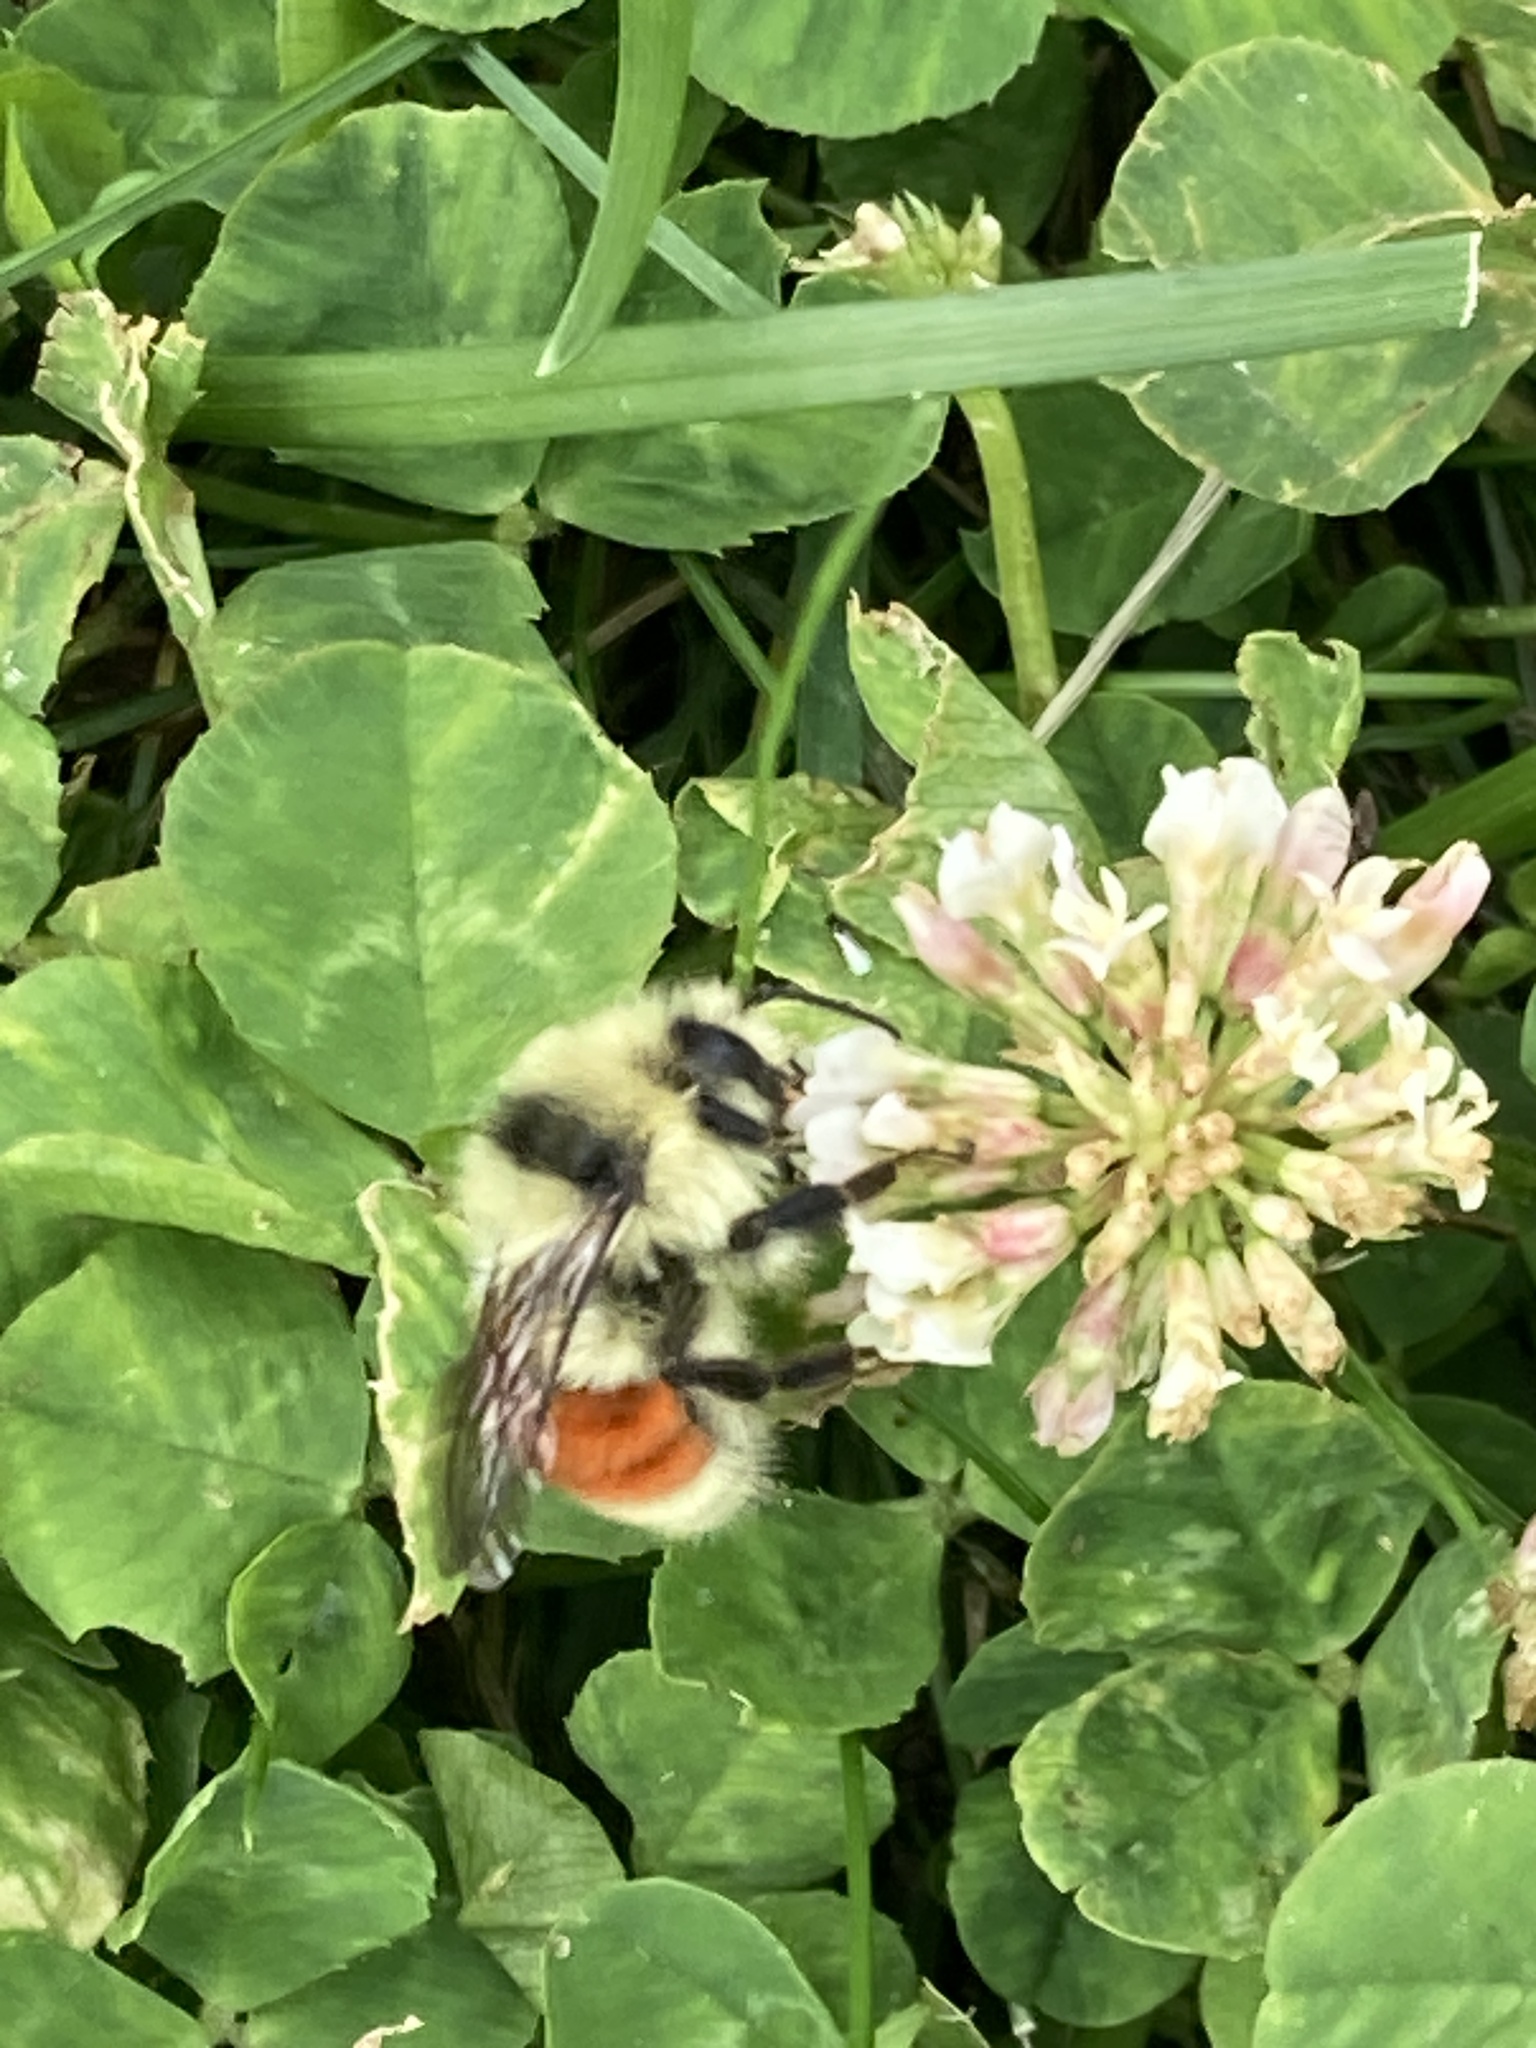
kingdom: Animalia
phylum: Arthropoda
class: Insecta
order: Hymenoptera
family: Apidae
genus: Bombus
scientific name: Bombus huntii
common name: Hunt bumble bee
